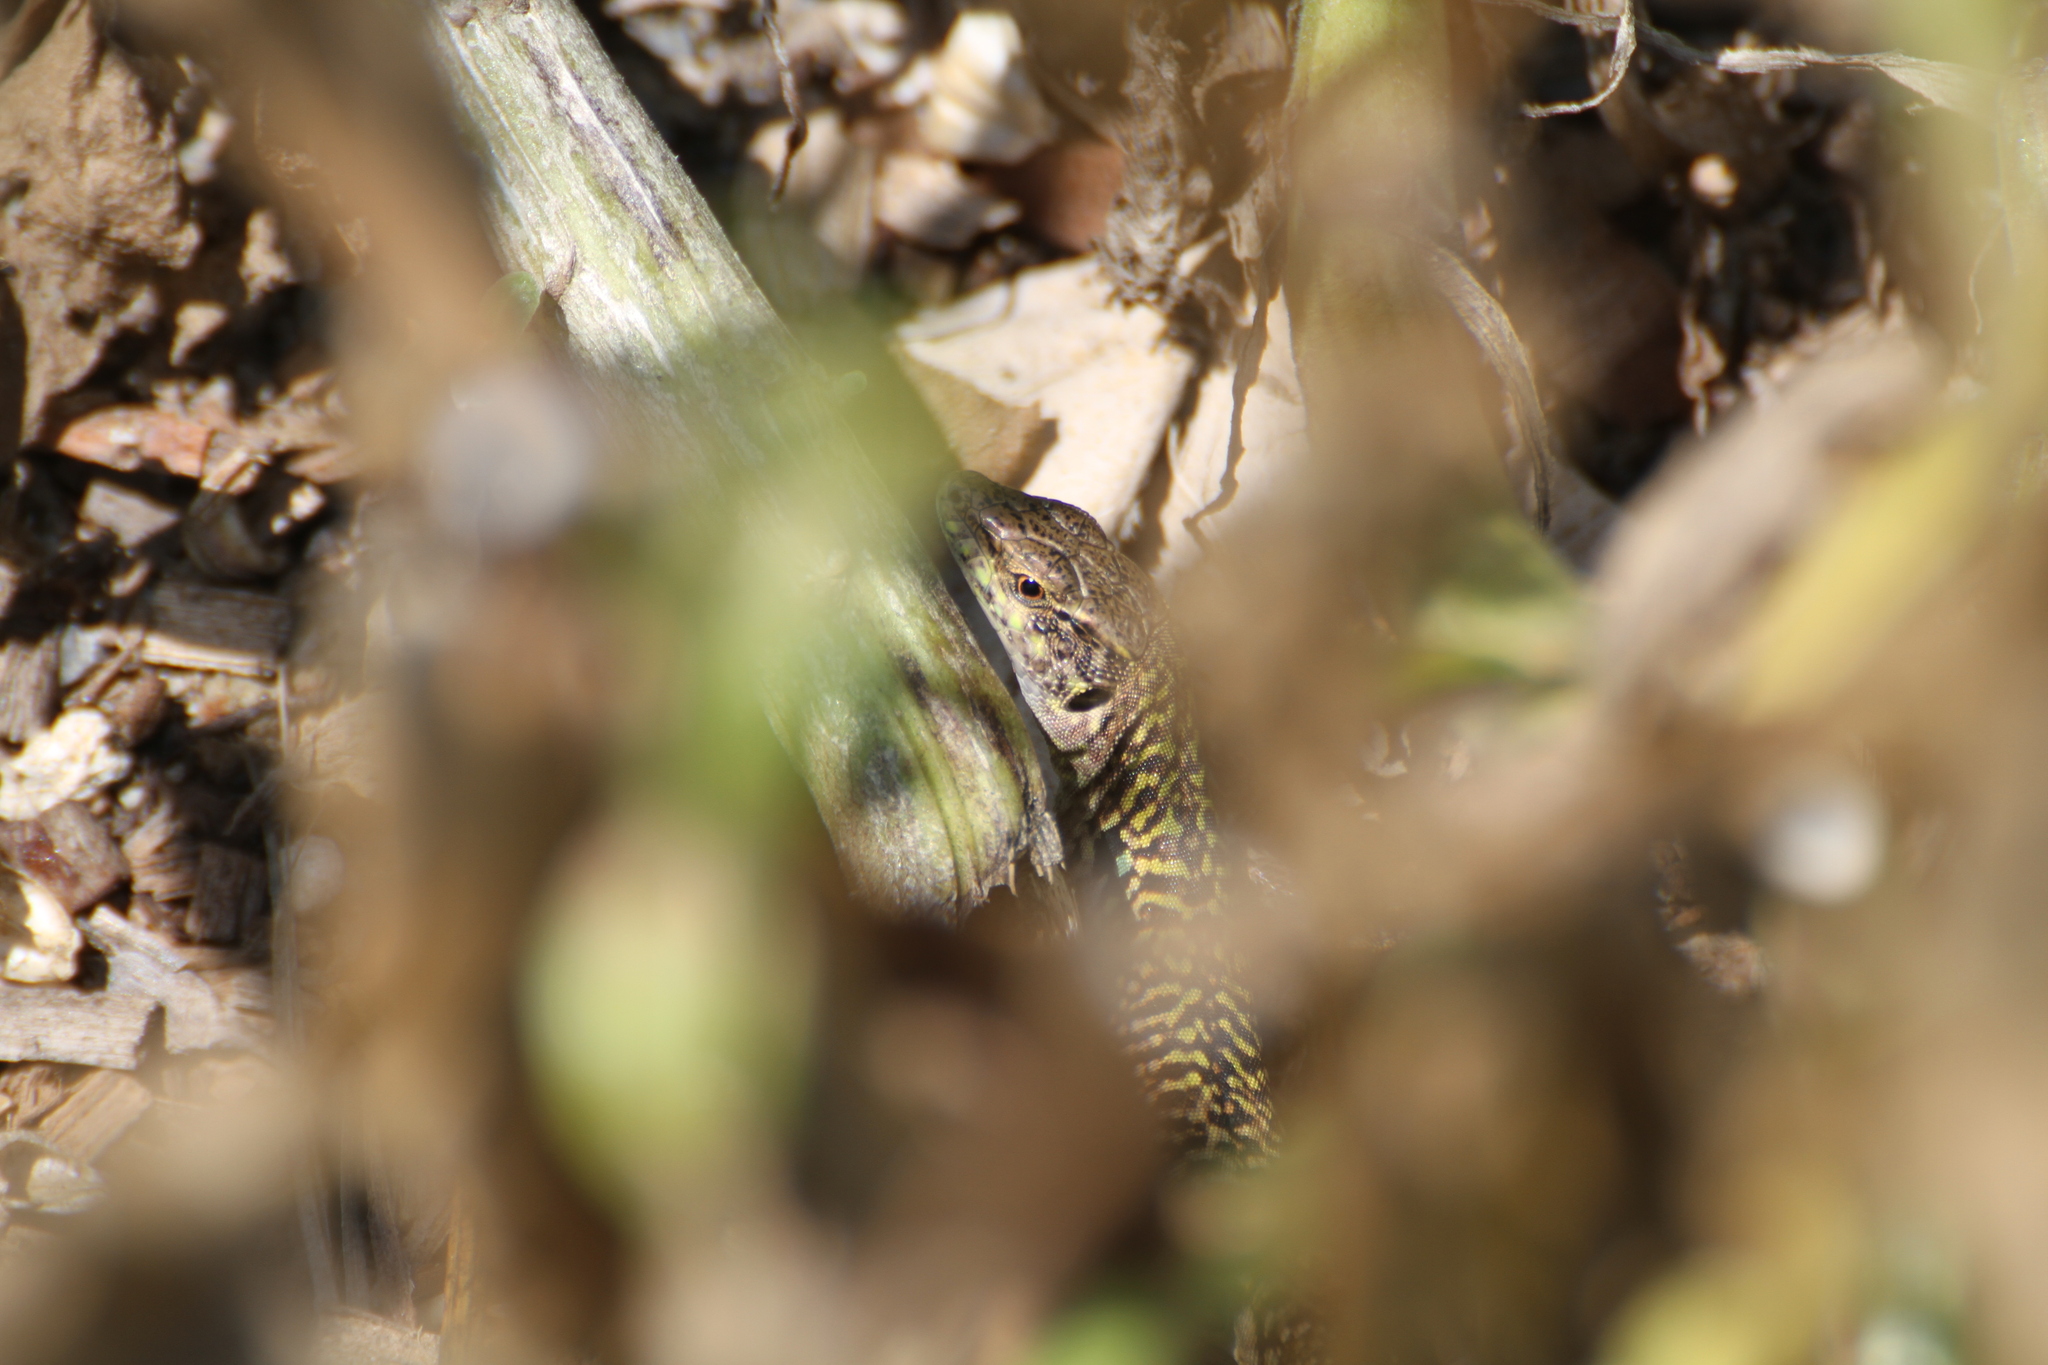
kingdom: Animalia
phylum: Chordata
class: Squamata
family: Lacertidae
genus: Podarcis
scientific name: Podarcis siculus
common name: Italian wall lizard
